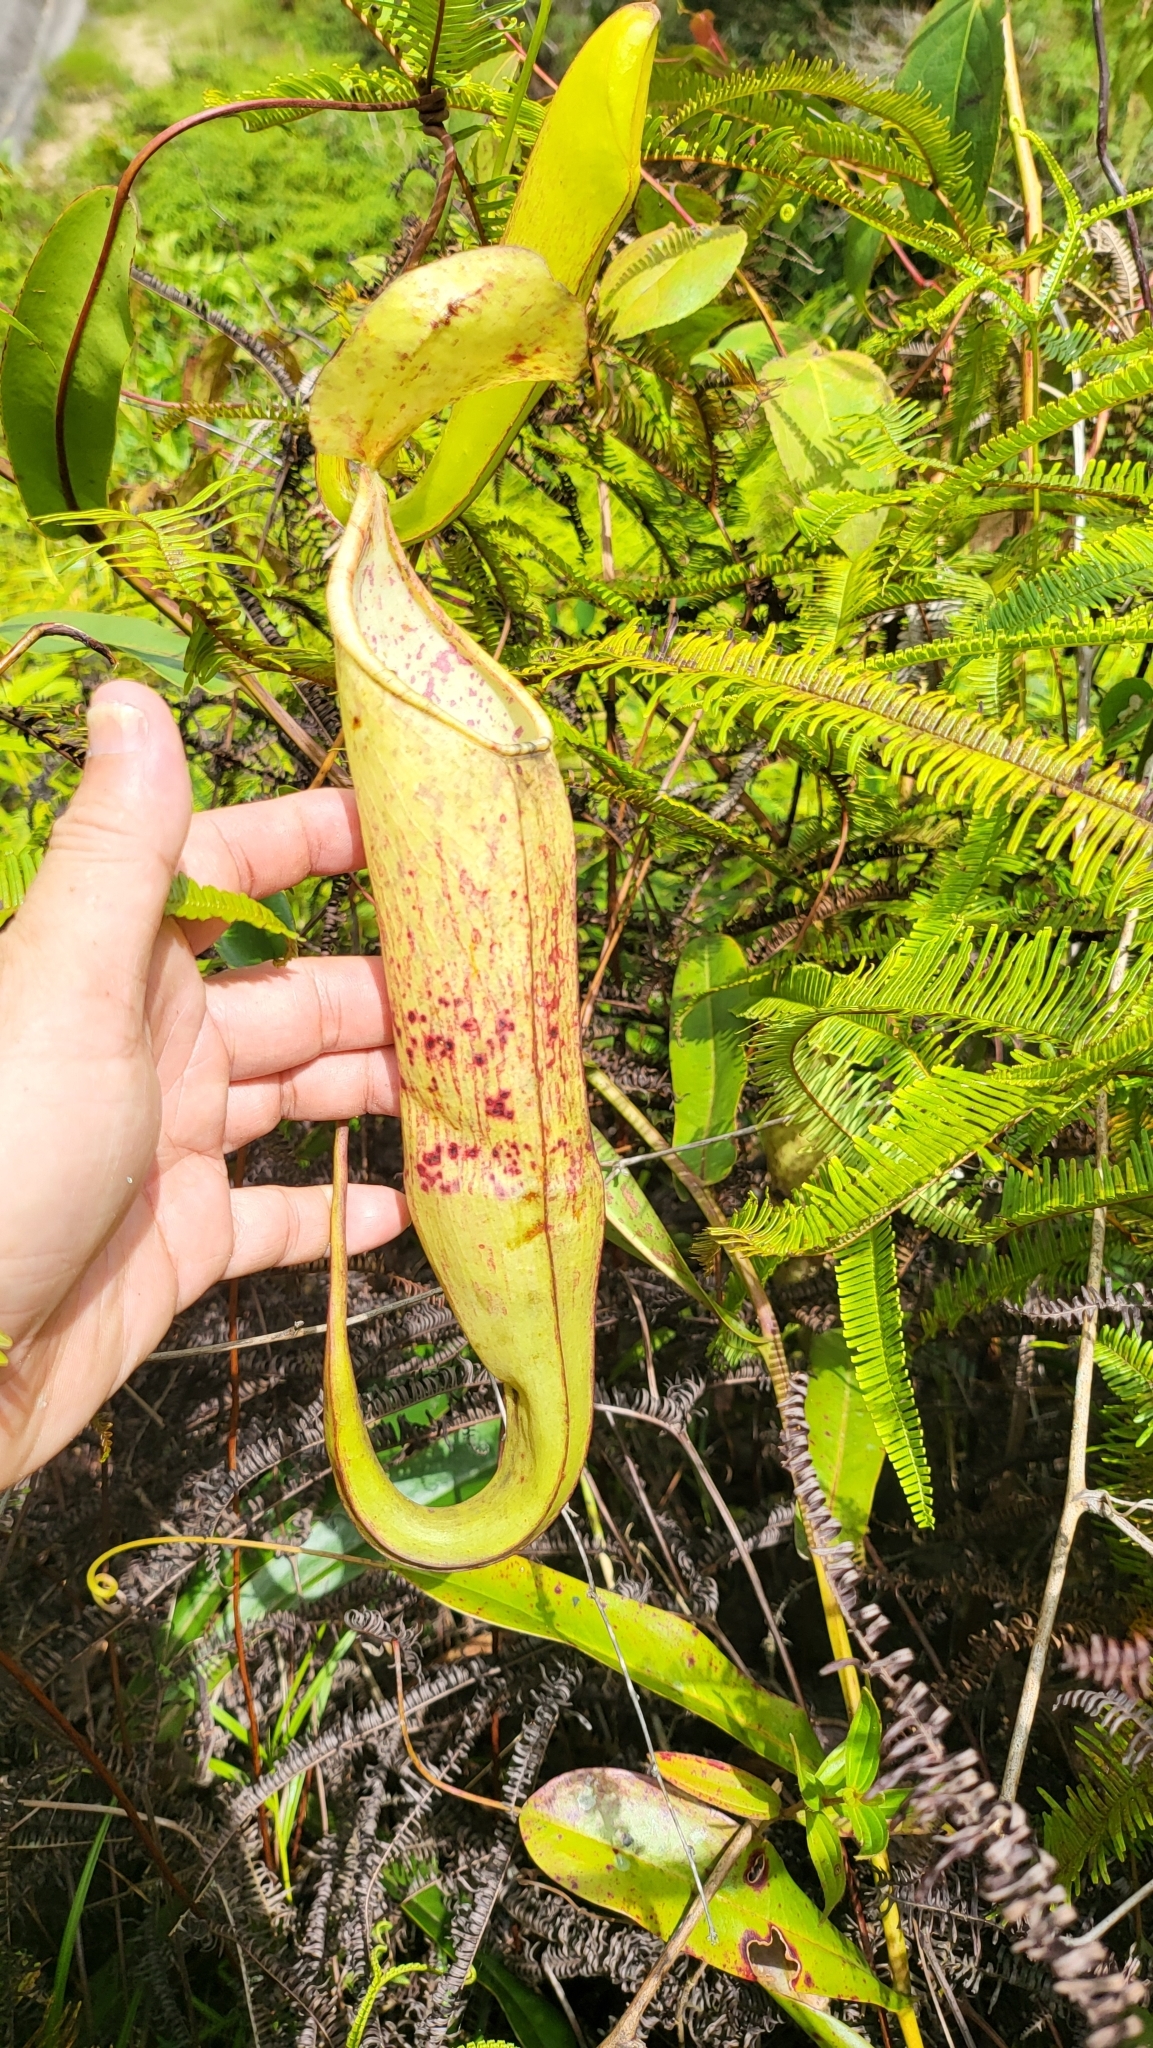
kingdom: Plantae
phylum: Tracheophyta
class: Magnoliopsida
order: Caryophyllales
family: Nepenthaceae
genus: Nepenthes
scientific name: Nepenthes sanguinea
